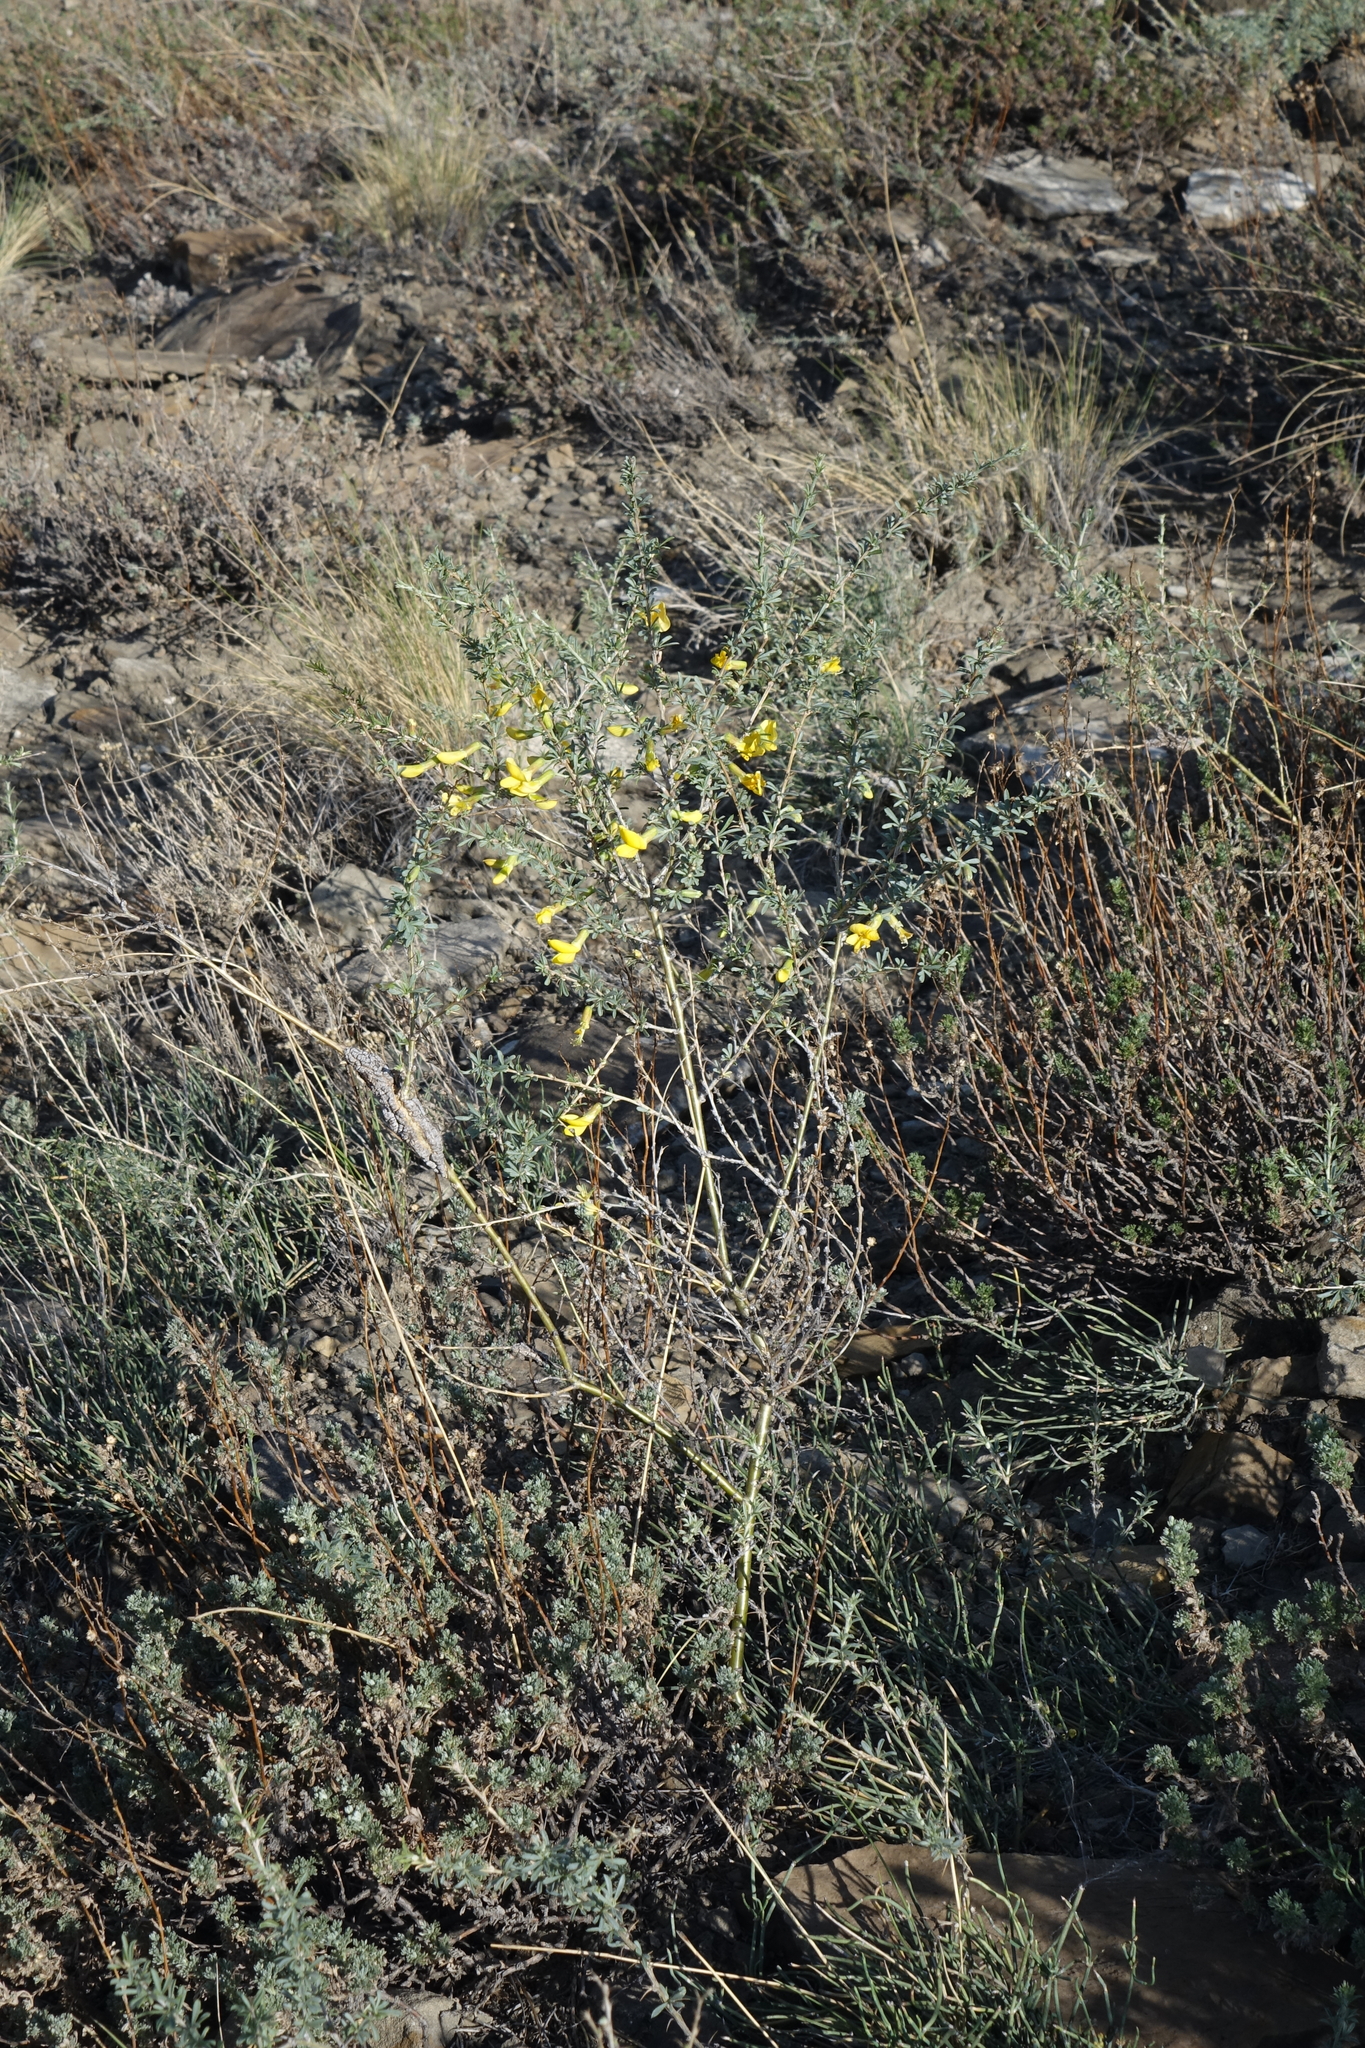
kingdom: Plantae
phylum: Tracheophyta
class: Magnoliopsida
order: Fabales
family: Fabaceae
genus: Caragana
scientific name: Caragana pygmaea
